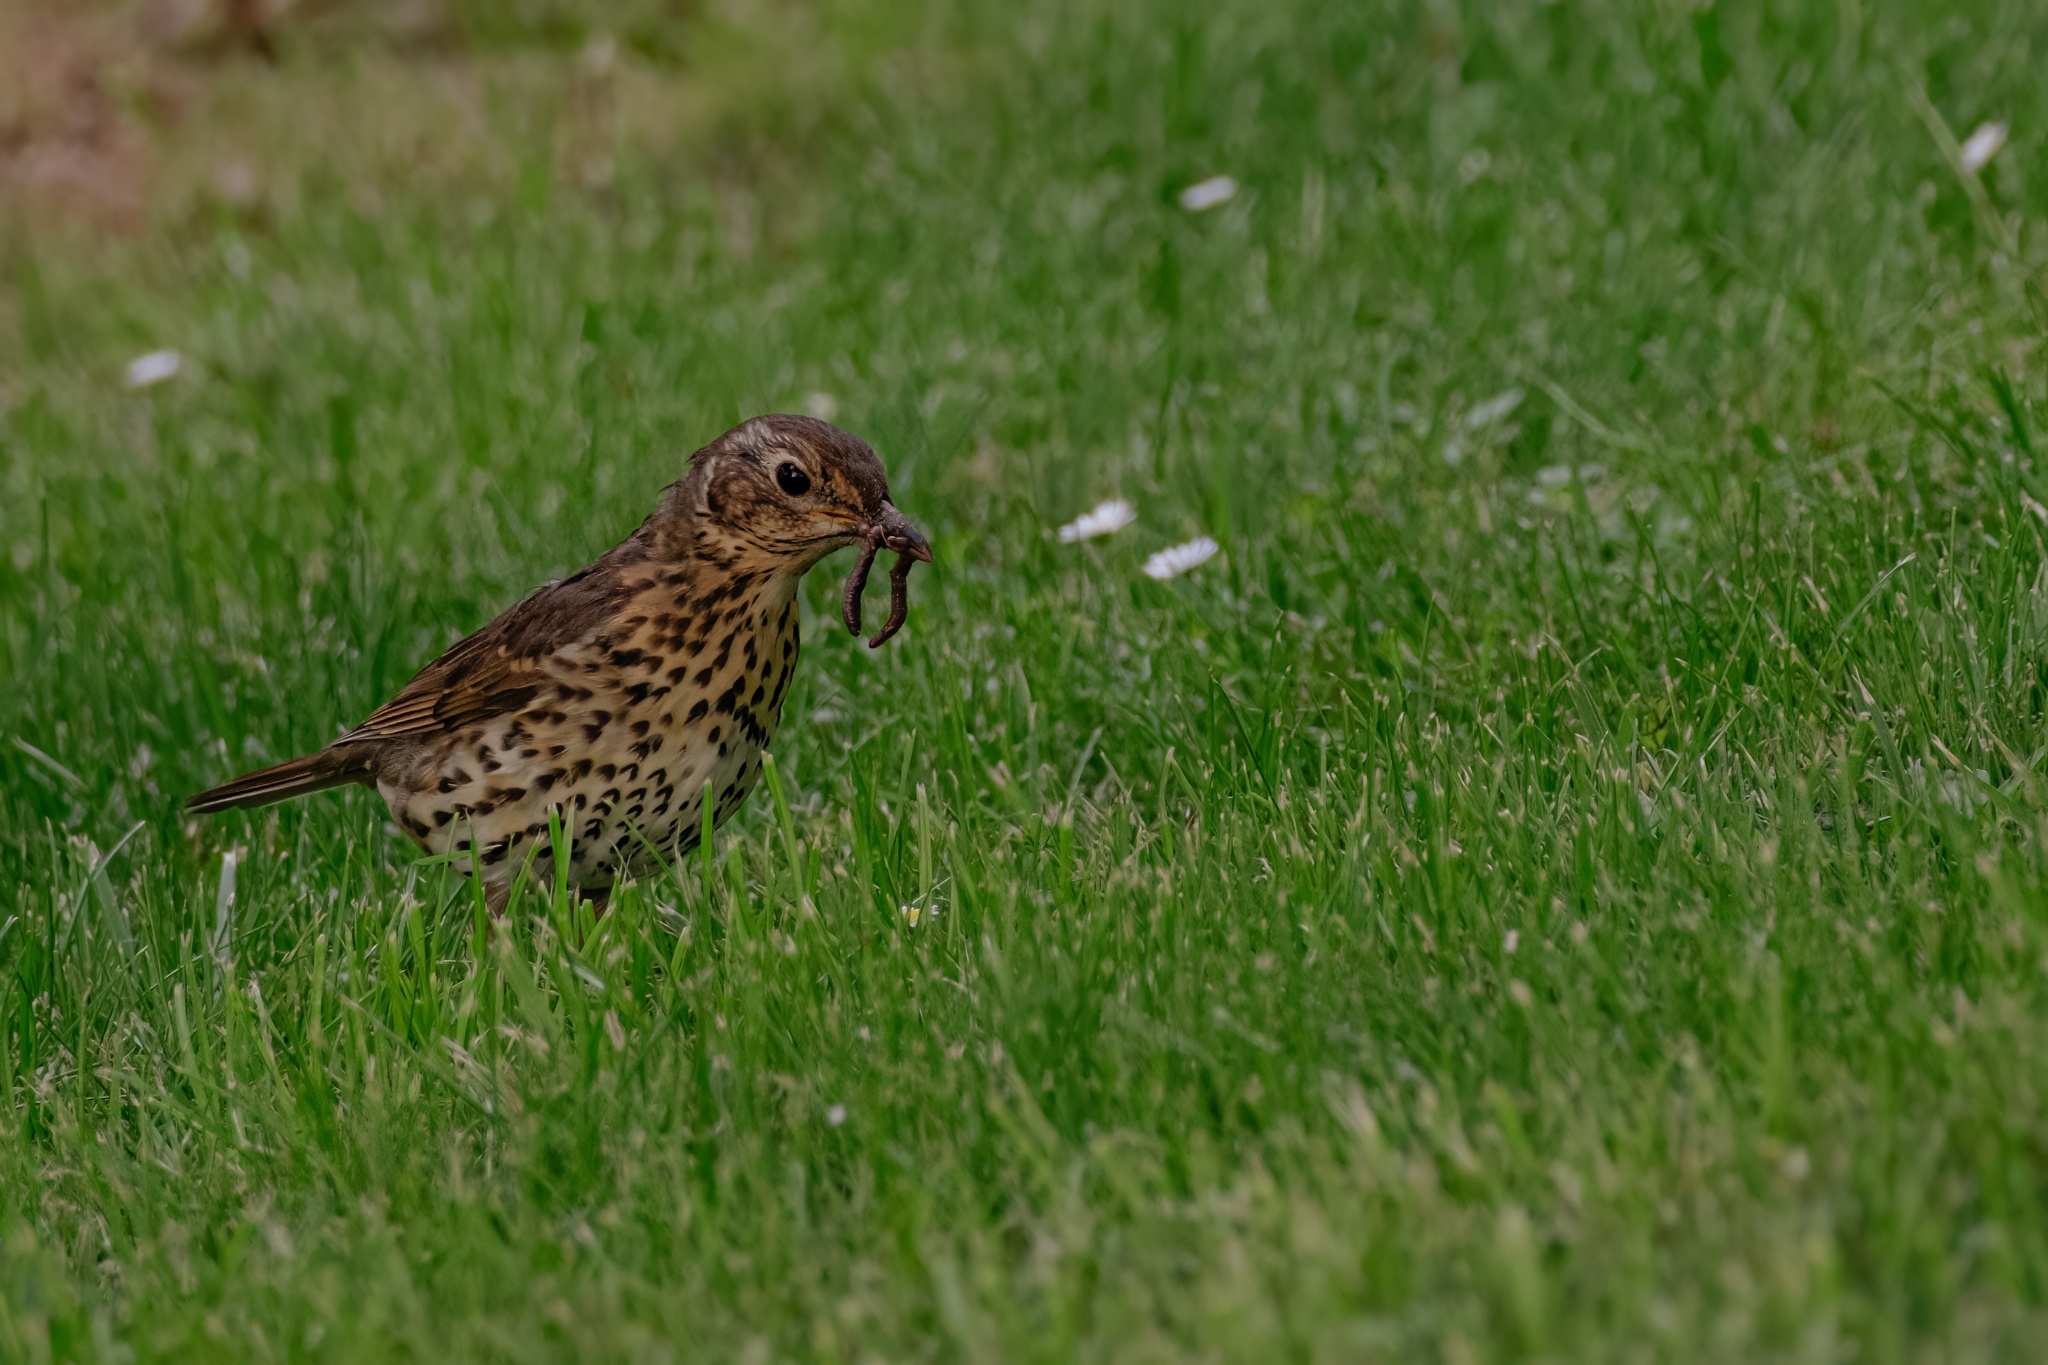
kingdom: Animalia
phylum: Chordata
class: Aves
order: Passeriformes
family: Turdidae
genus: Turdus
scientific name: Turdus philomelos
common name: Song thrush
